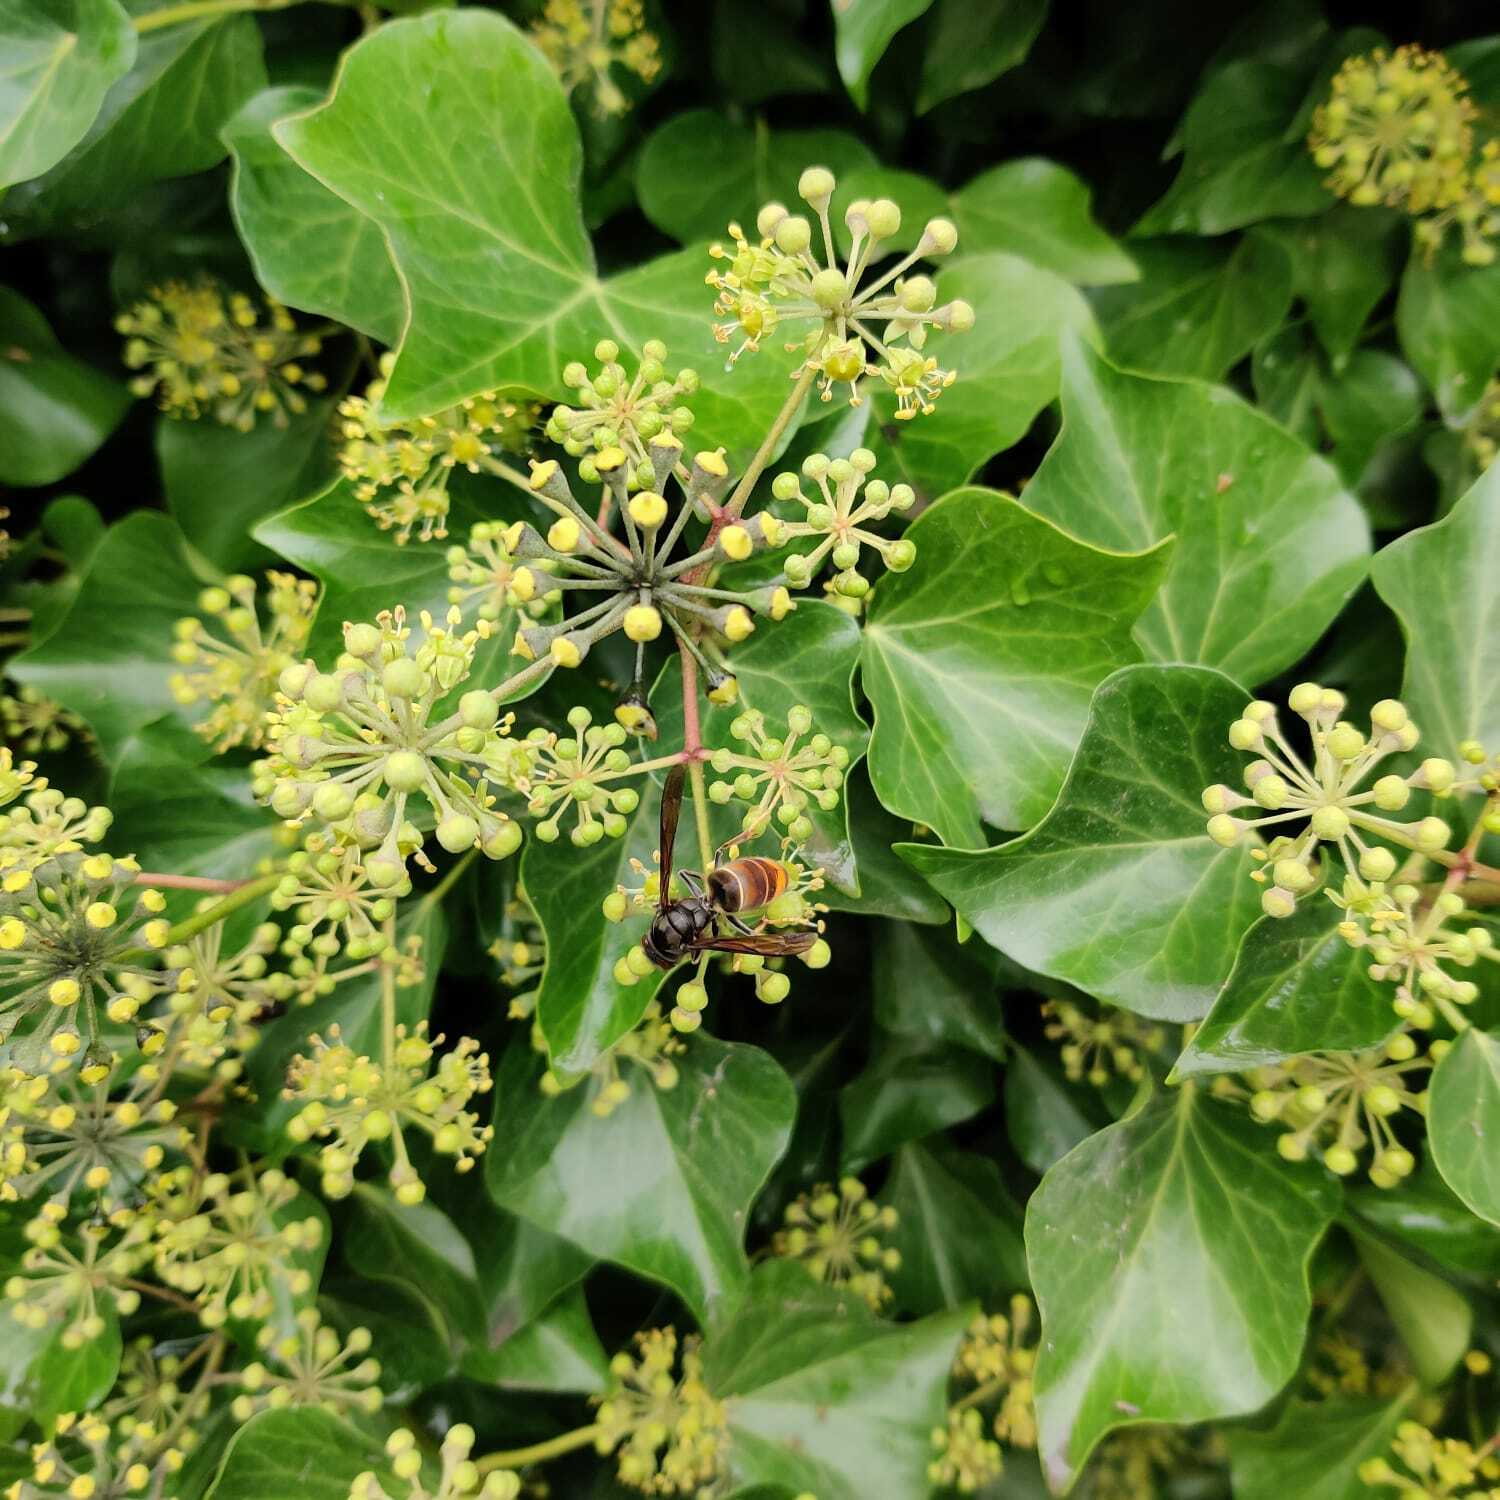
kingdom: Animalia
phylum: Arthropoda
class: Insecta
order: Hymenoptera
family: Vespidae
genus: Vespa
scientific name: Vespa velutina
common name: Asian hornet
